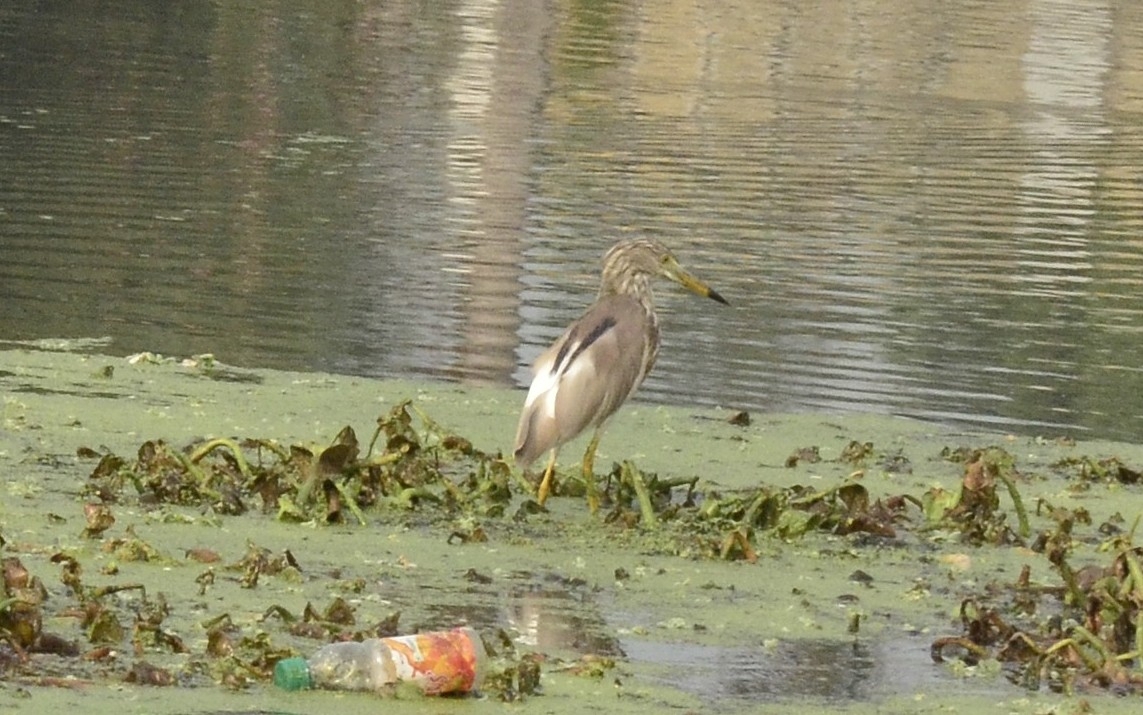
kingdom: Animalia
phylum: Chordata
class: Aves
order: Pelecaniformes
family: Ardeidae
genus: Ardeola
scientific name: Ardeola grayii
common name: Indian pond heron
